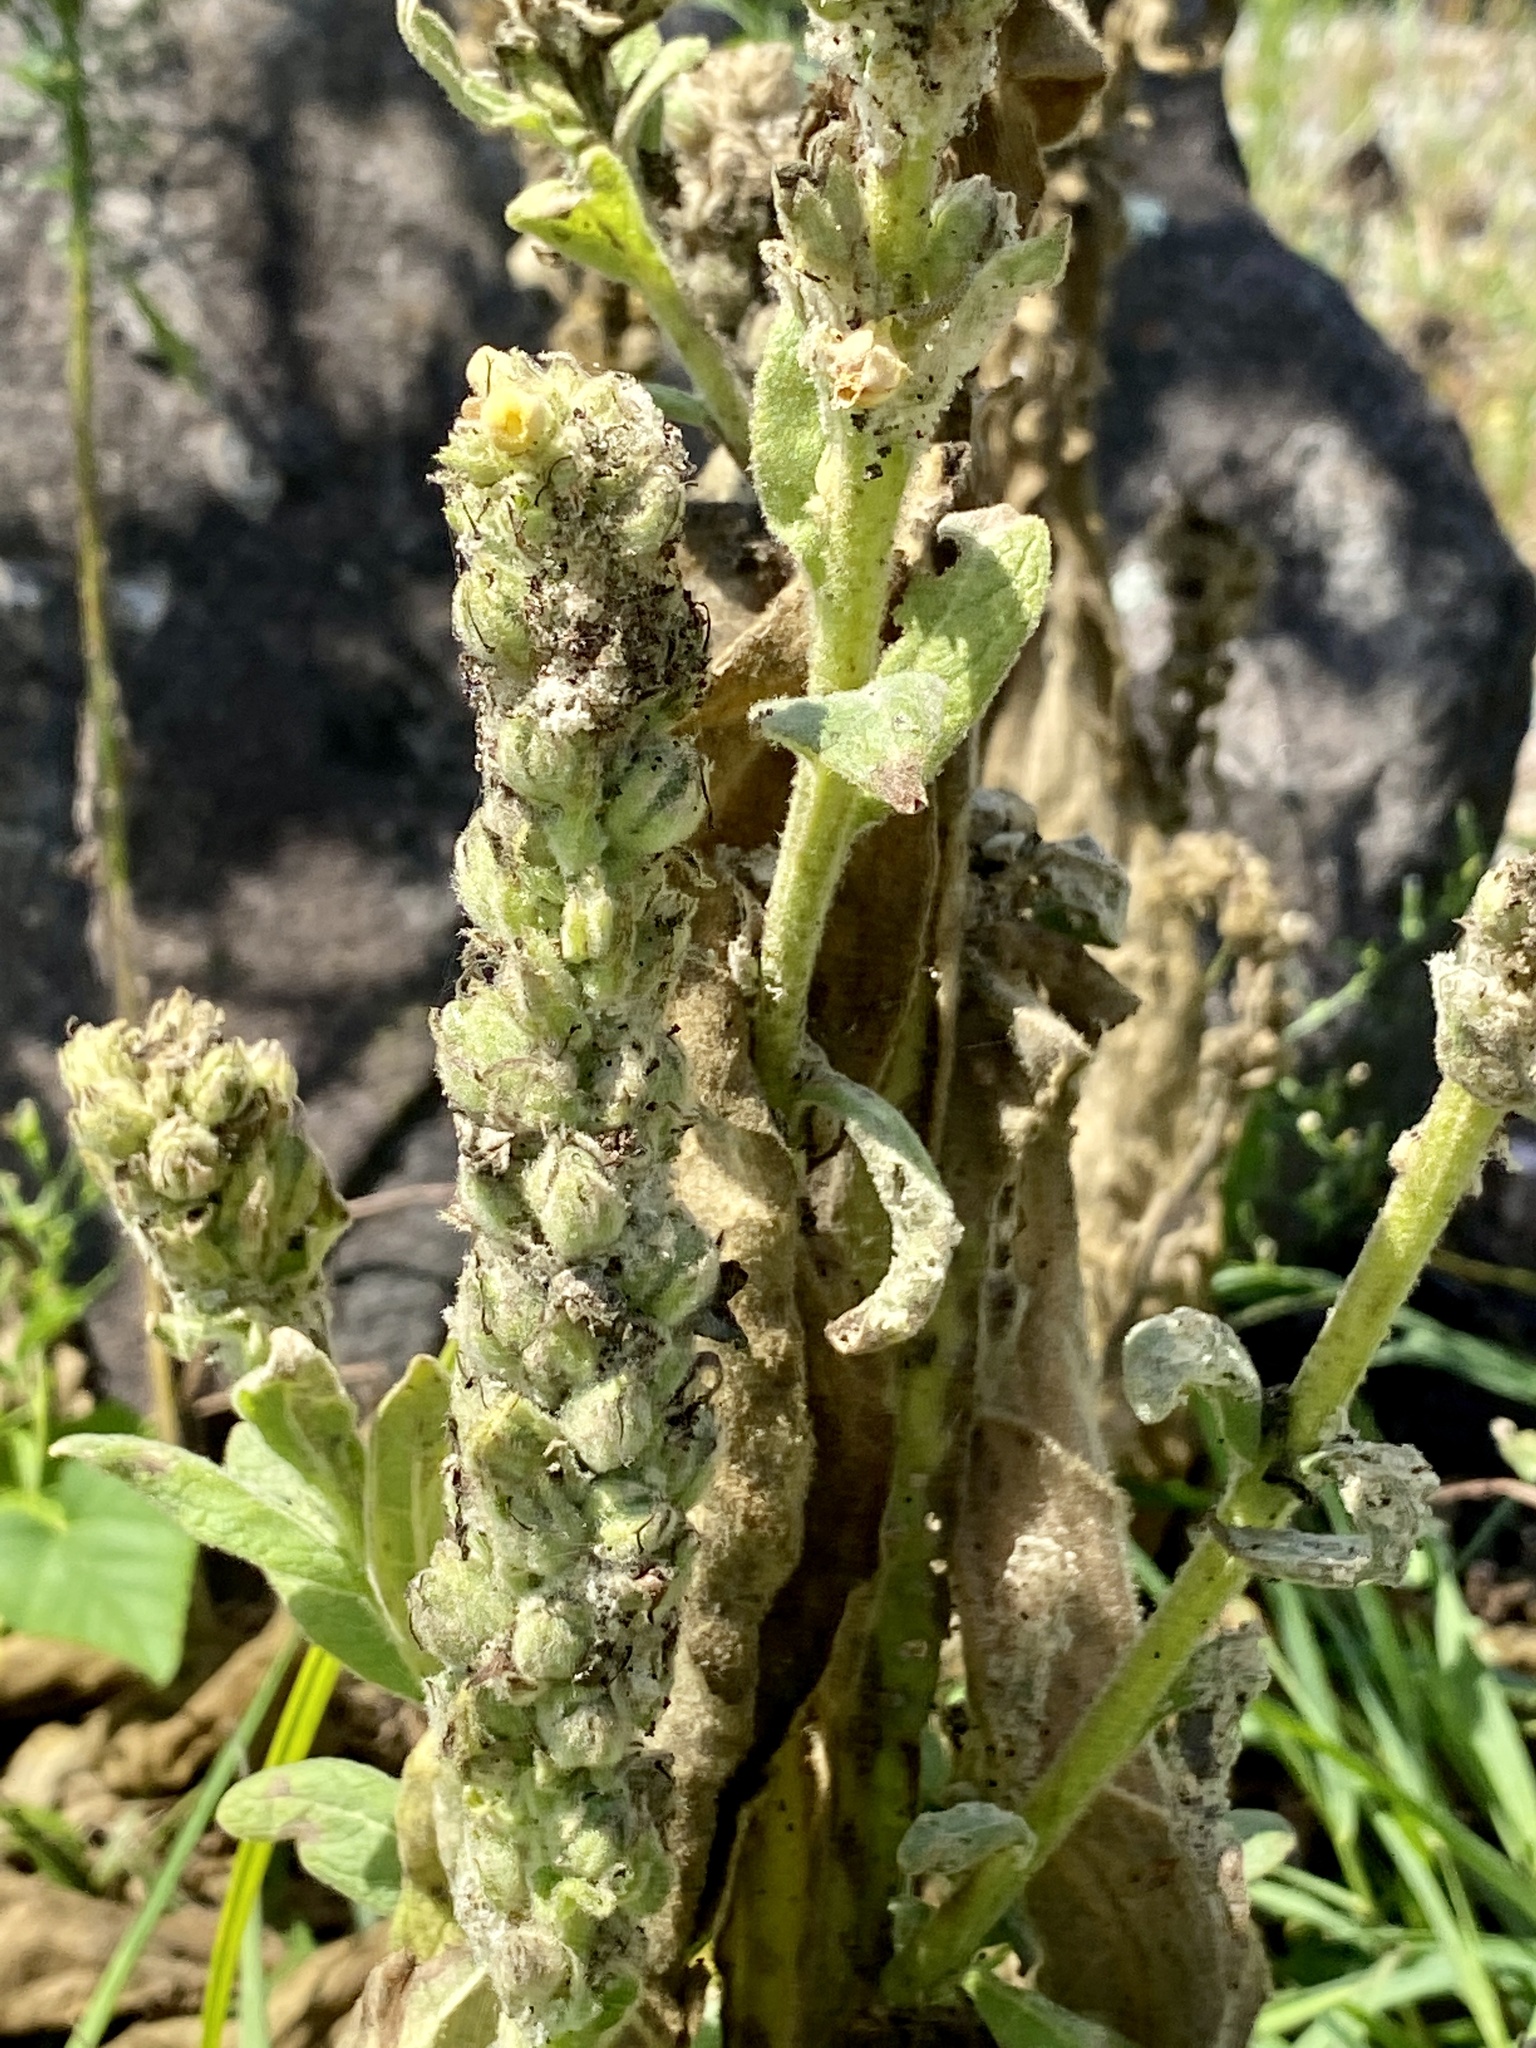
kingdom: Plantae
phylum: Tracheophyta
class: Magnoliopsida
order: Lamiales
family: Scrophulariaceae
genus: Verbascum
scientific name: Verbascum thapsus
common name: Common mullein
